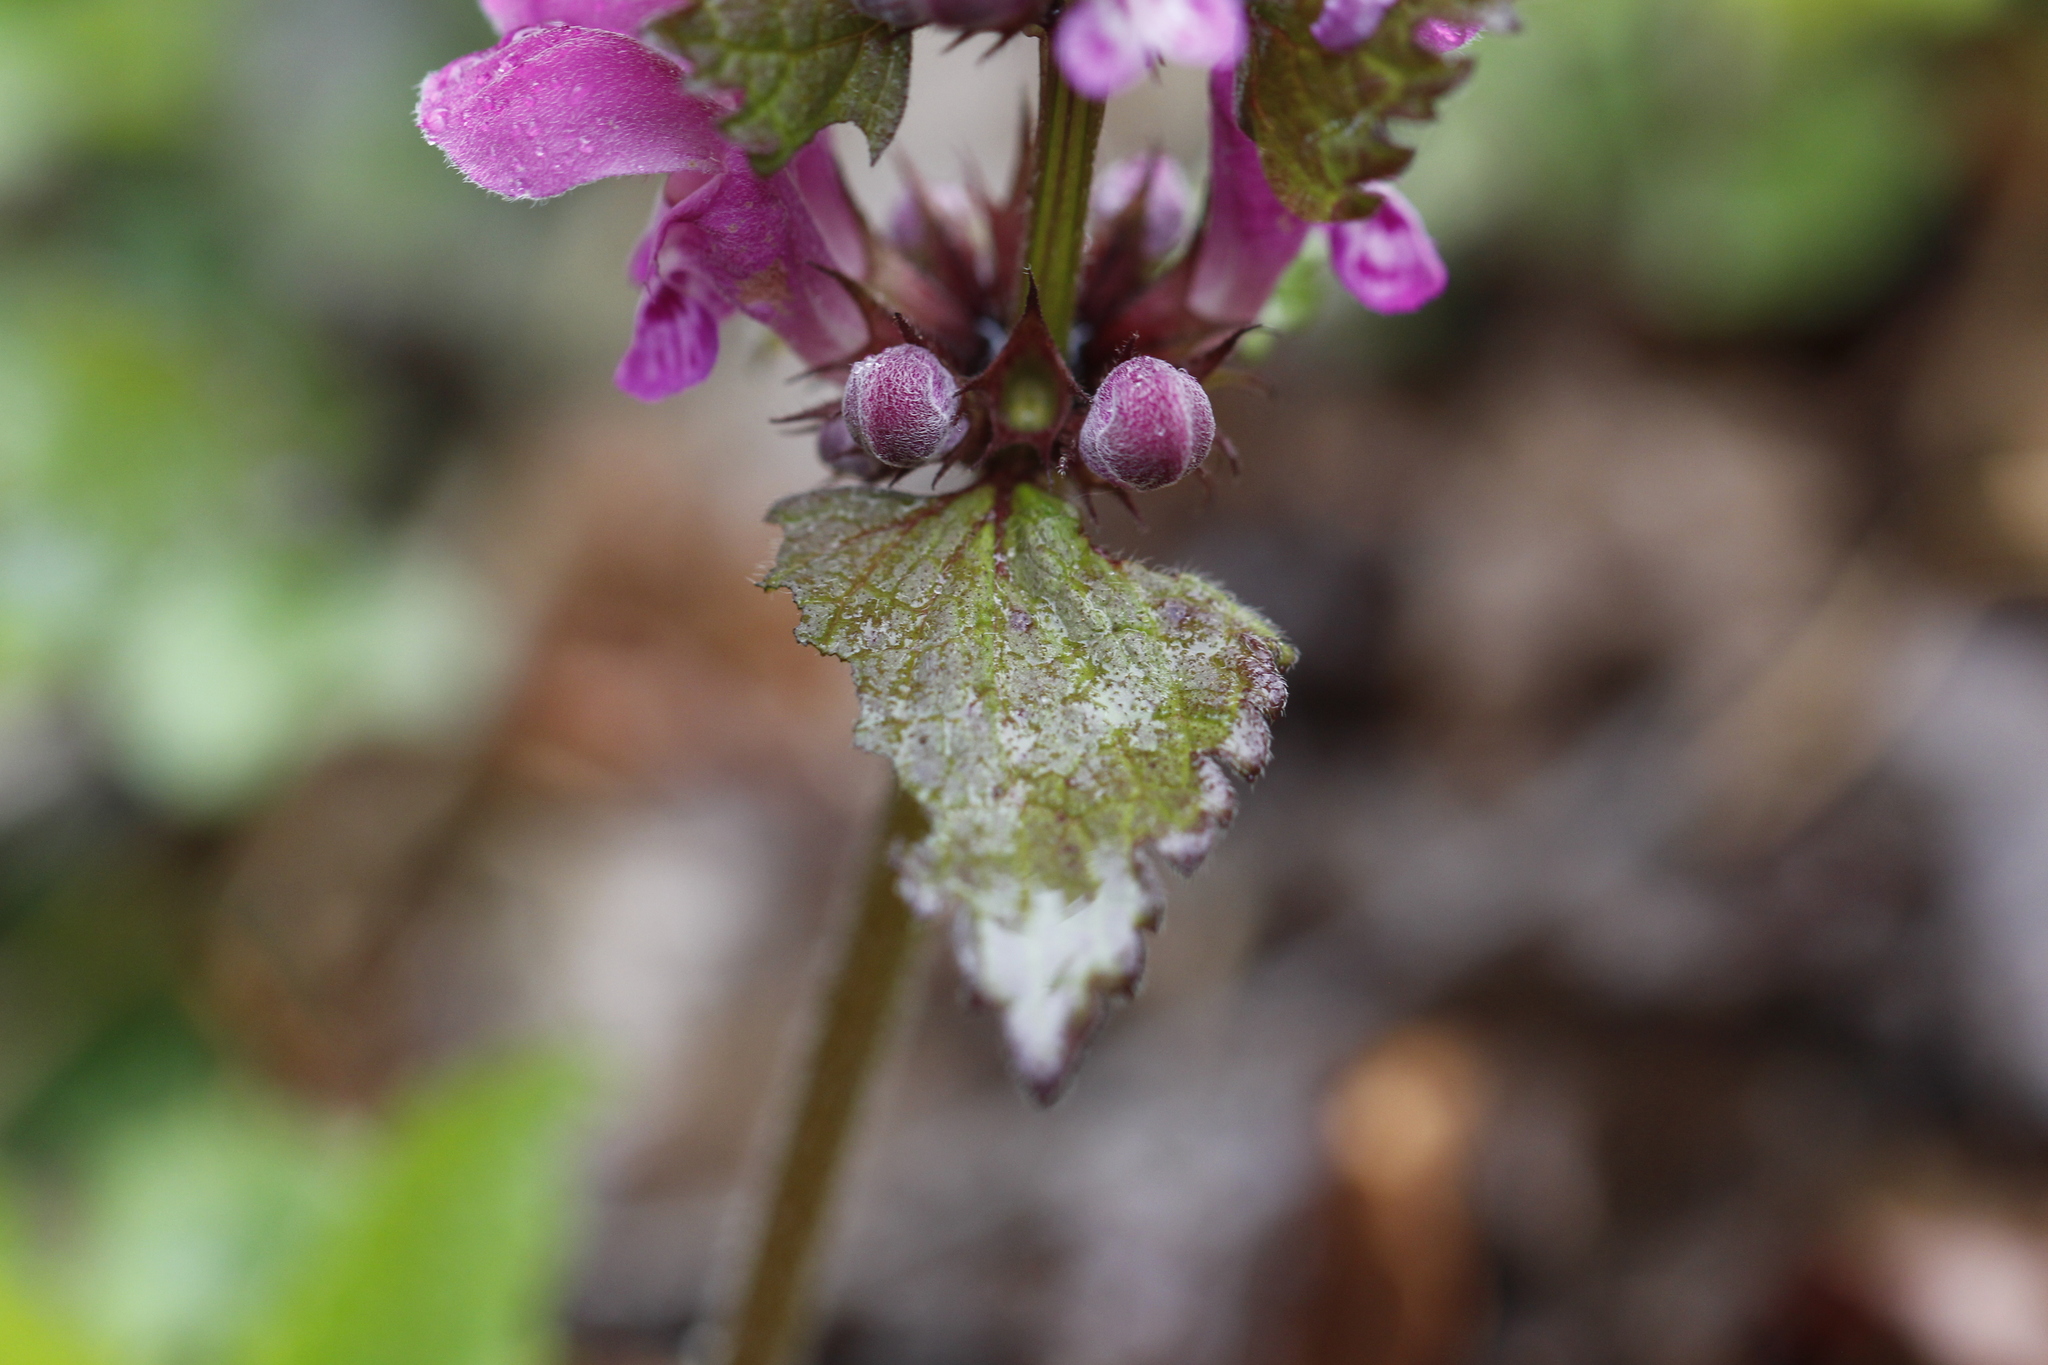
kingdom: Plantae
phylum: Tracheophyta
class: Magnoliopsida
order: Lamiales
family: Lamiaceae
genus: Lamium
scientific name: Lamium maculatum
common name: Spotted dead-nettle
